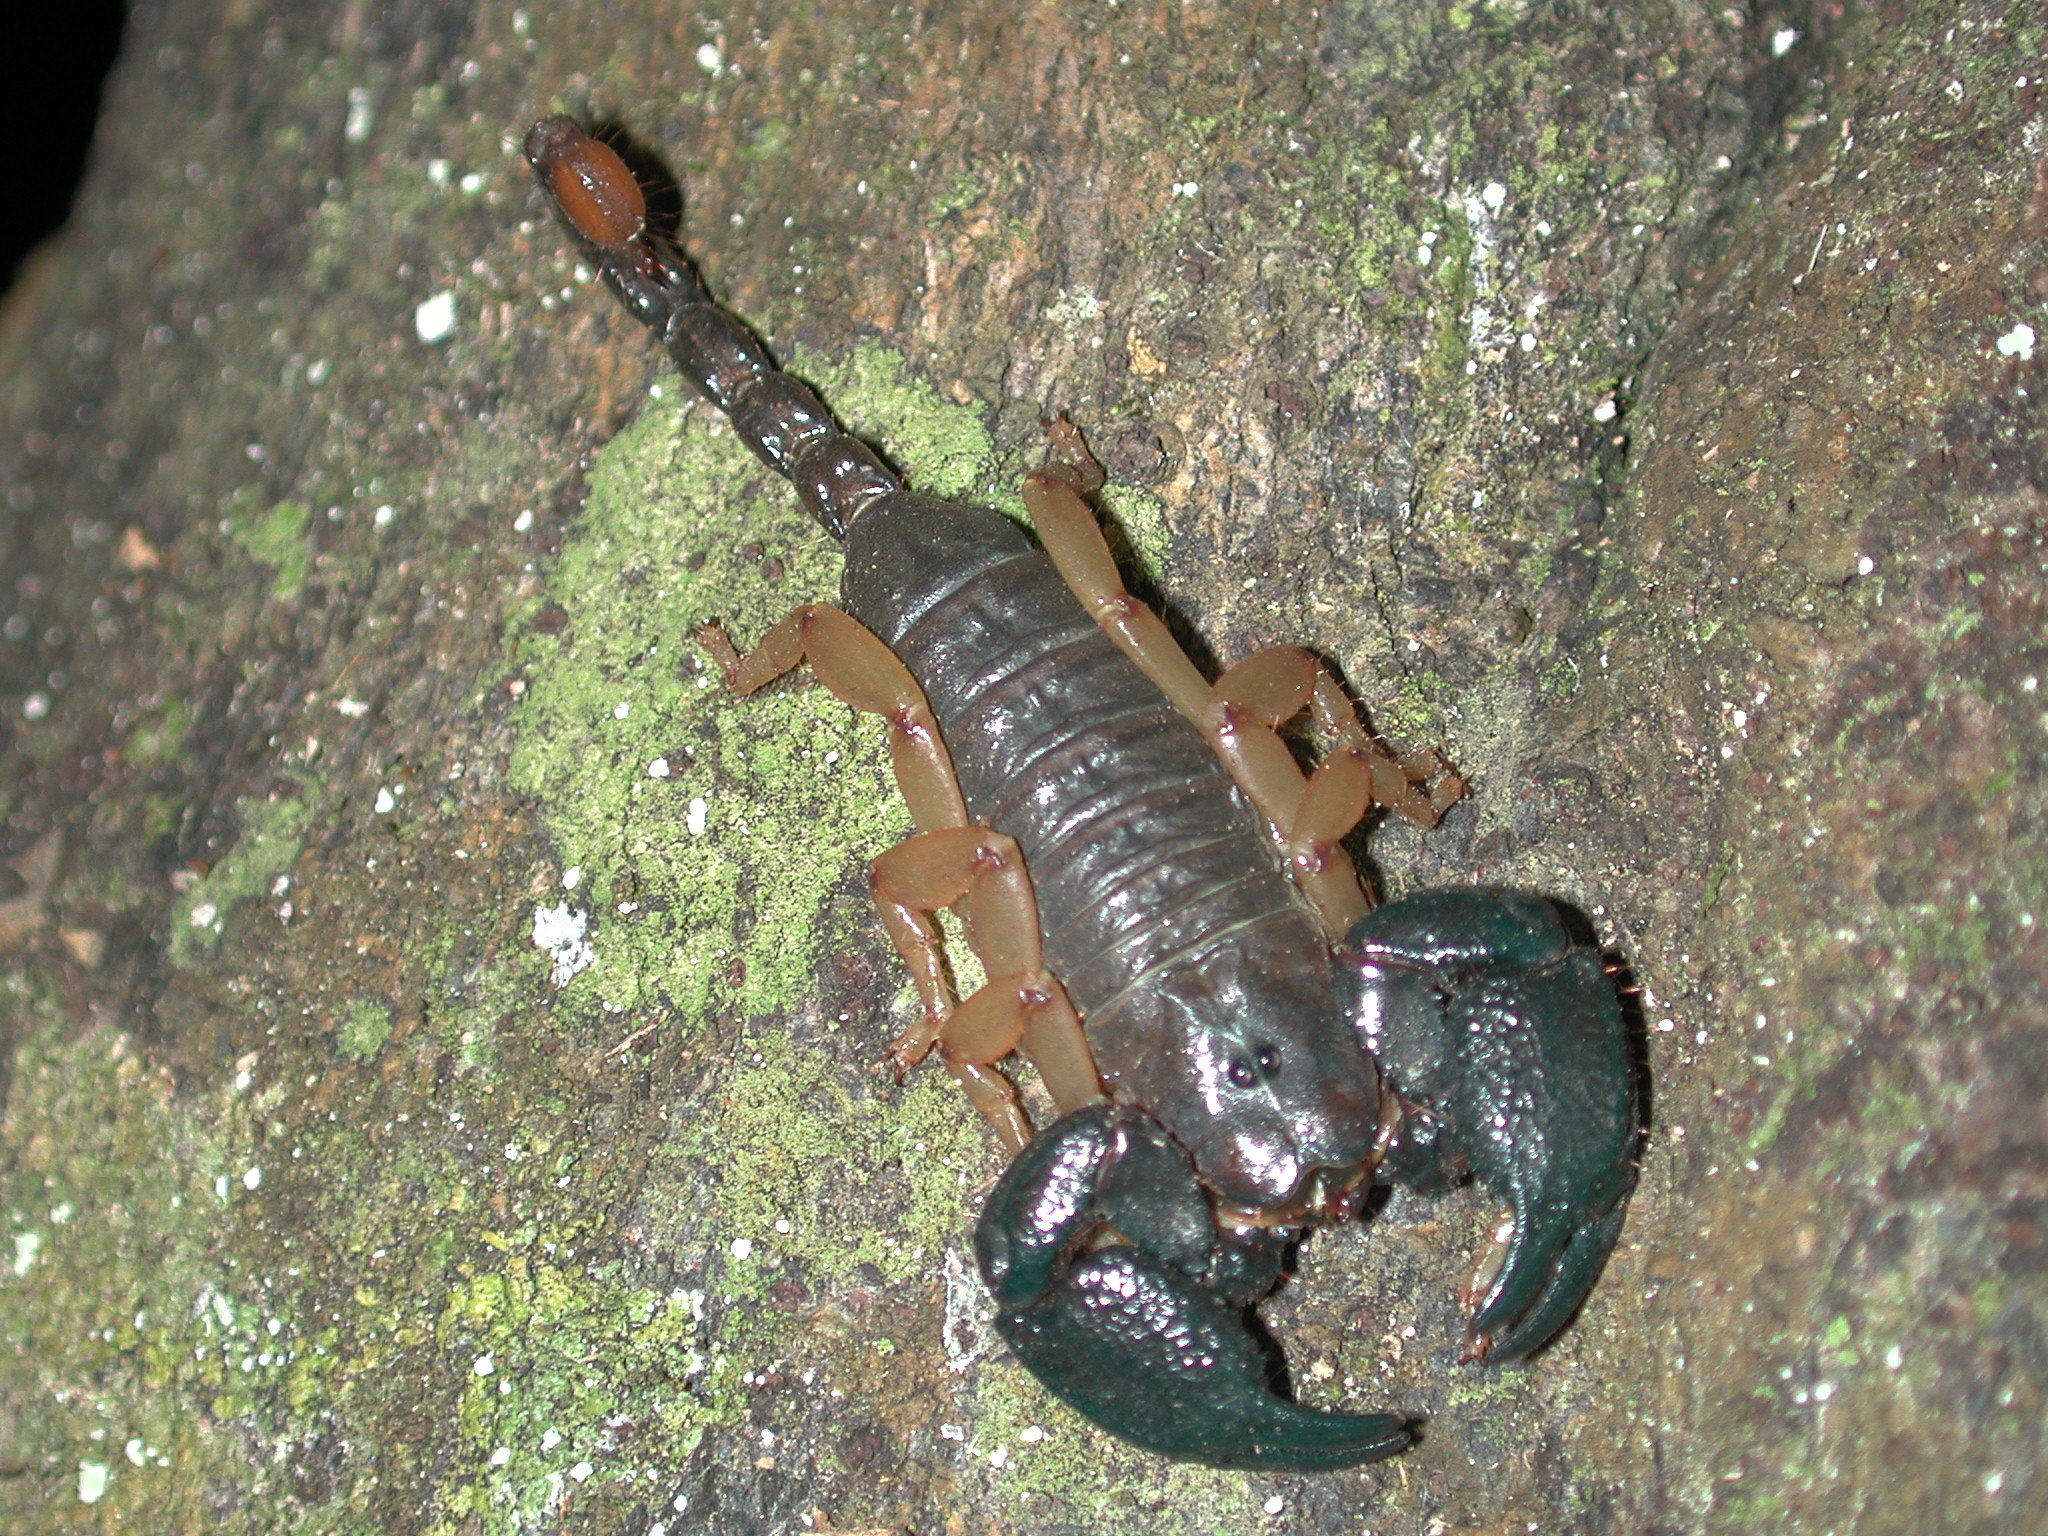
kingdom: Animalia
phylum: Arthropoda
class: Arachnida
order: Scorpiones
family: Hormuridae
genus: Opisthacanthus
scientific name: Opisthacanthus africanus
